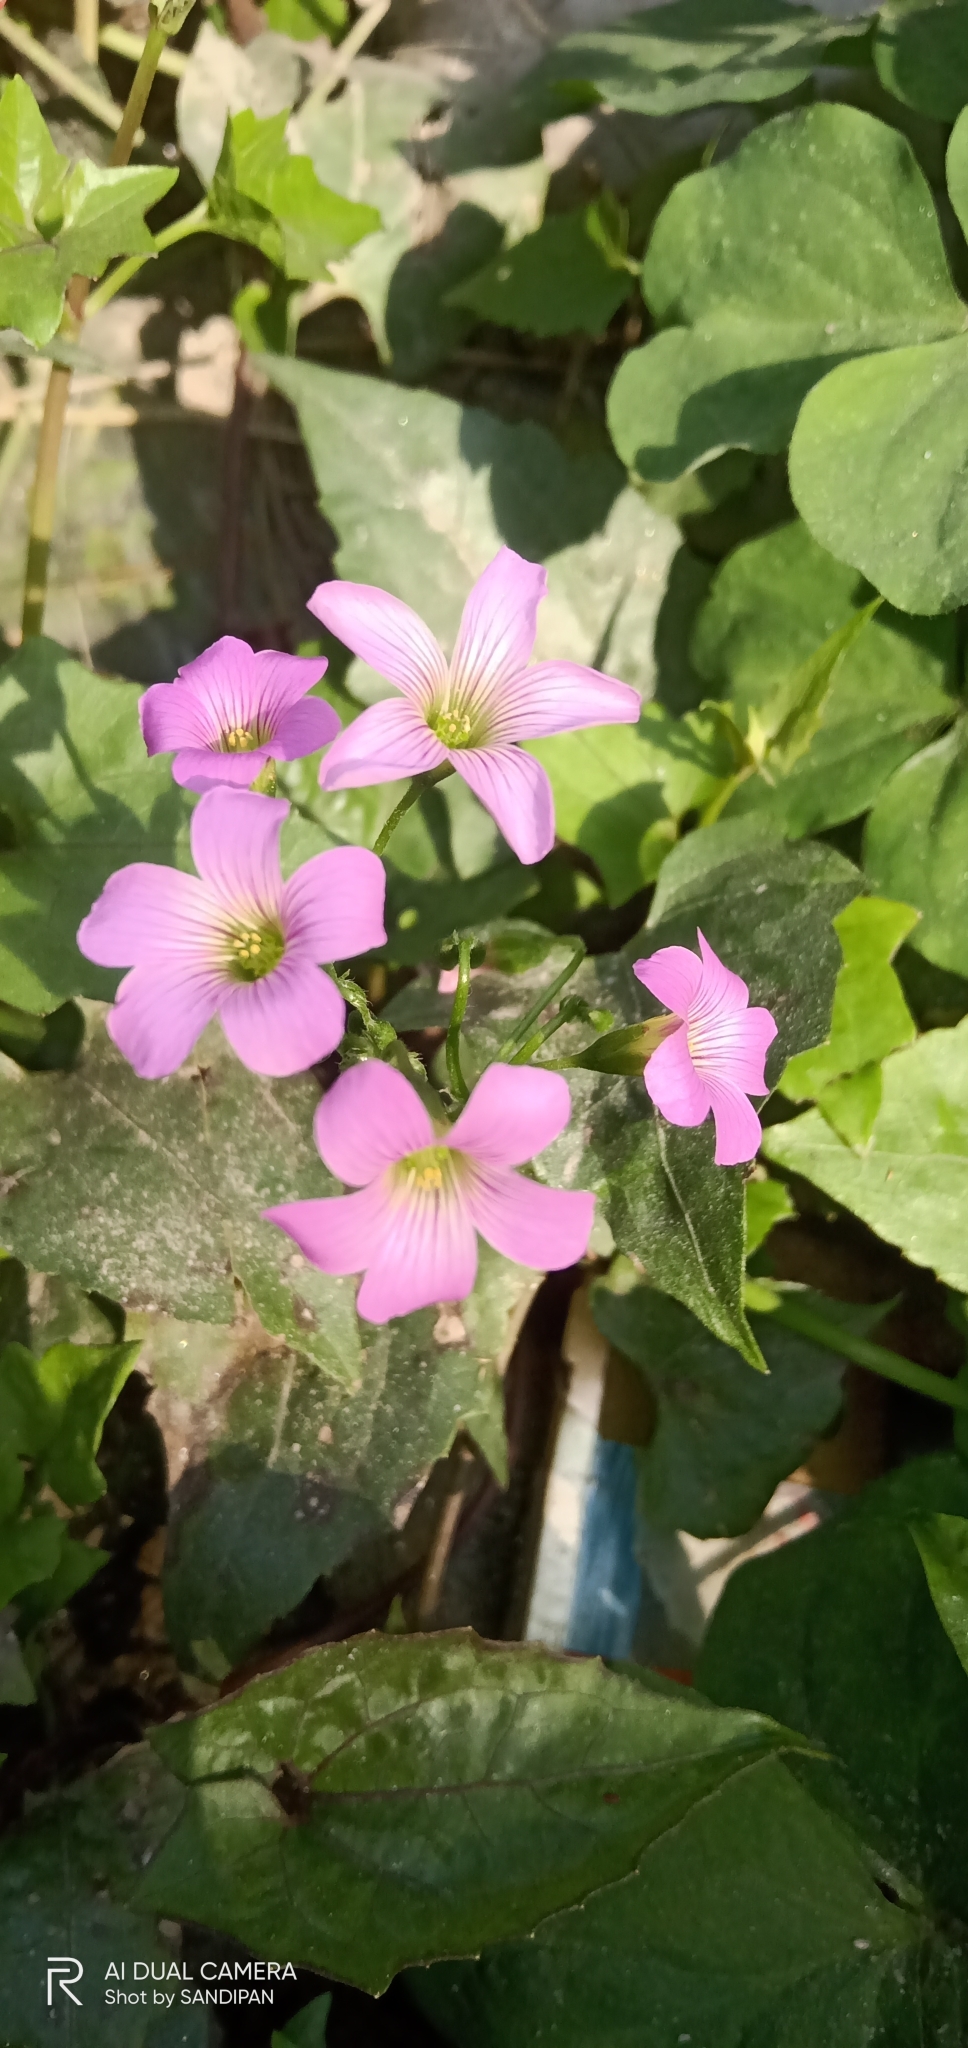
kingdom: Plantae
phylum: Tracheophyta
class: Magnoliopsida
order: Oxalidales
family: Oxalidaceae
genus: Oxalis
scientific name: Oxalis debilis
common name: Large-flowered pink-sorrel
